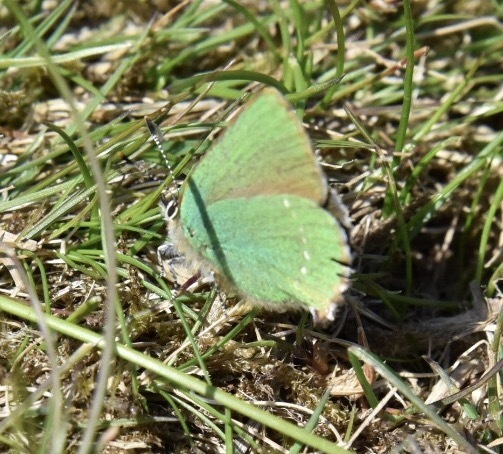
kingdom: Animalia
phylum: Arthropoda
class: Insecta
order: Lepidoptera
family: Lycaenidae
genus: Callophrys
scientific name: Callophrys rubi
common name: Green hairstreak
